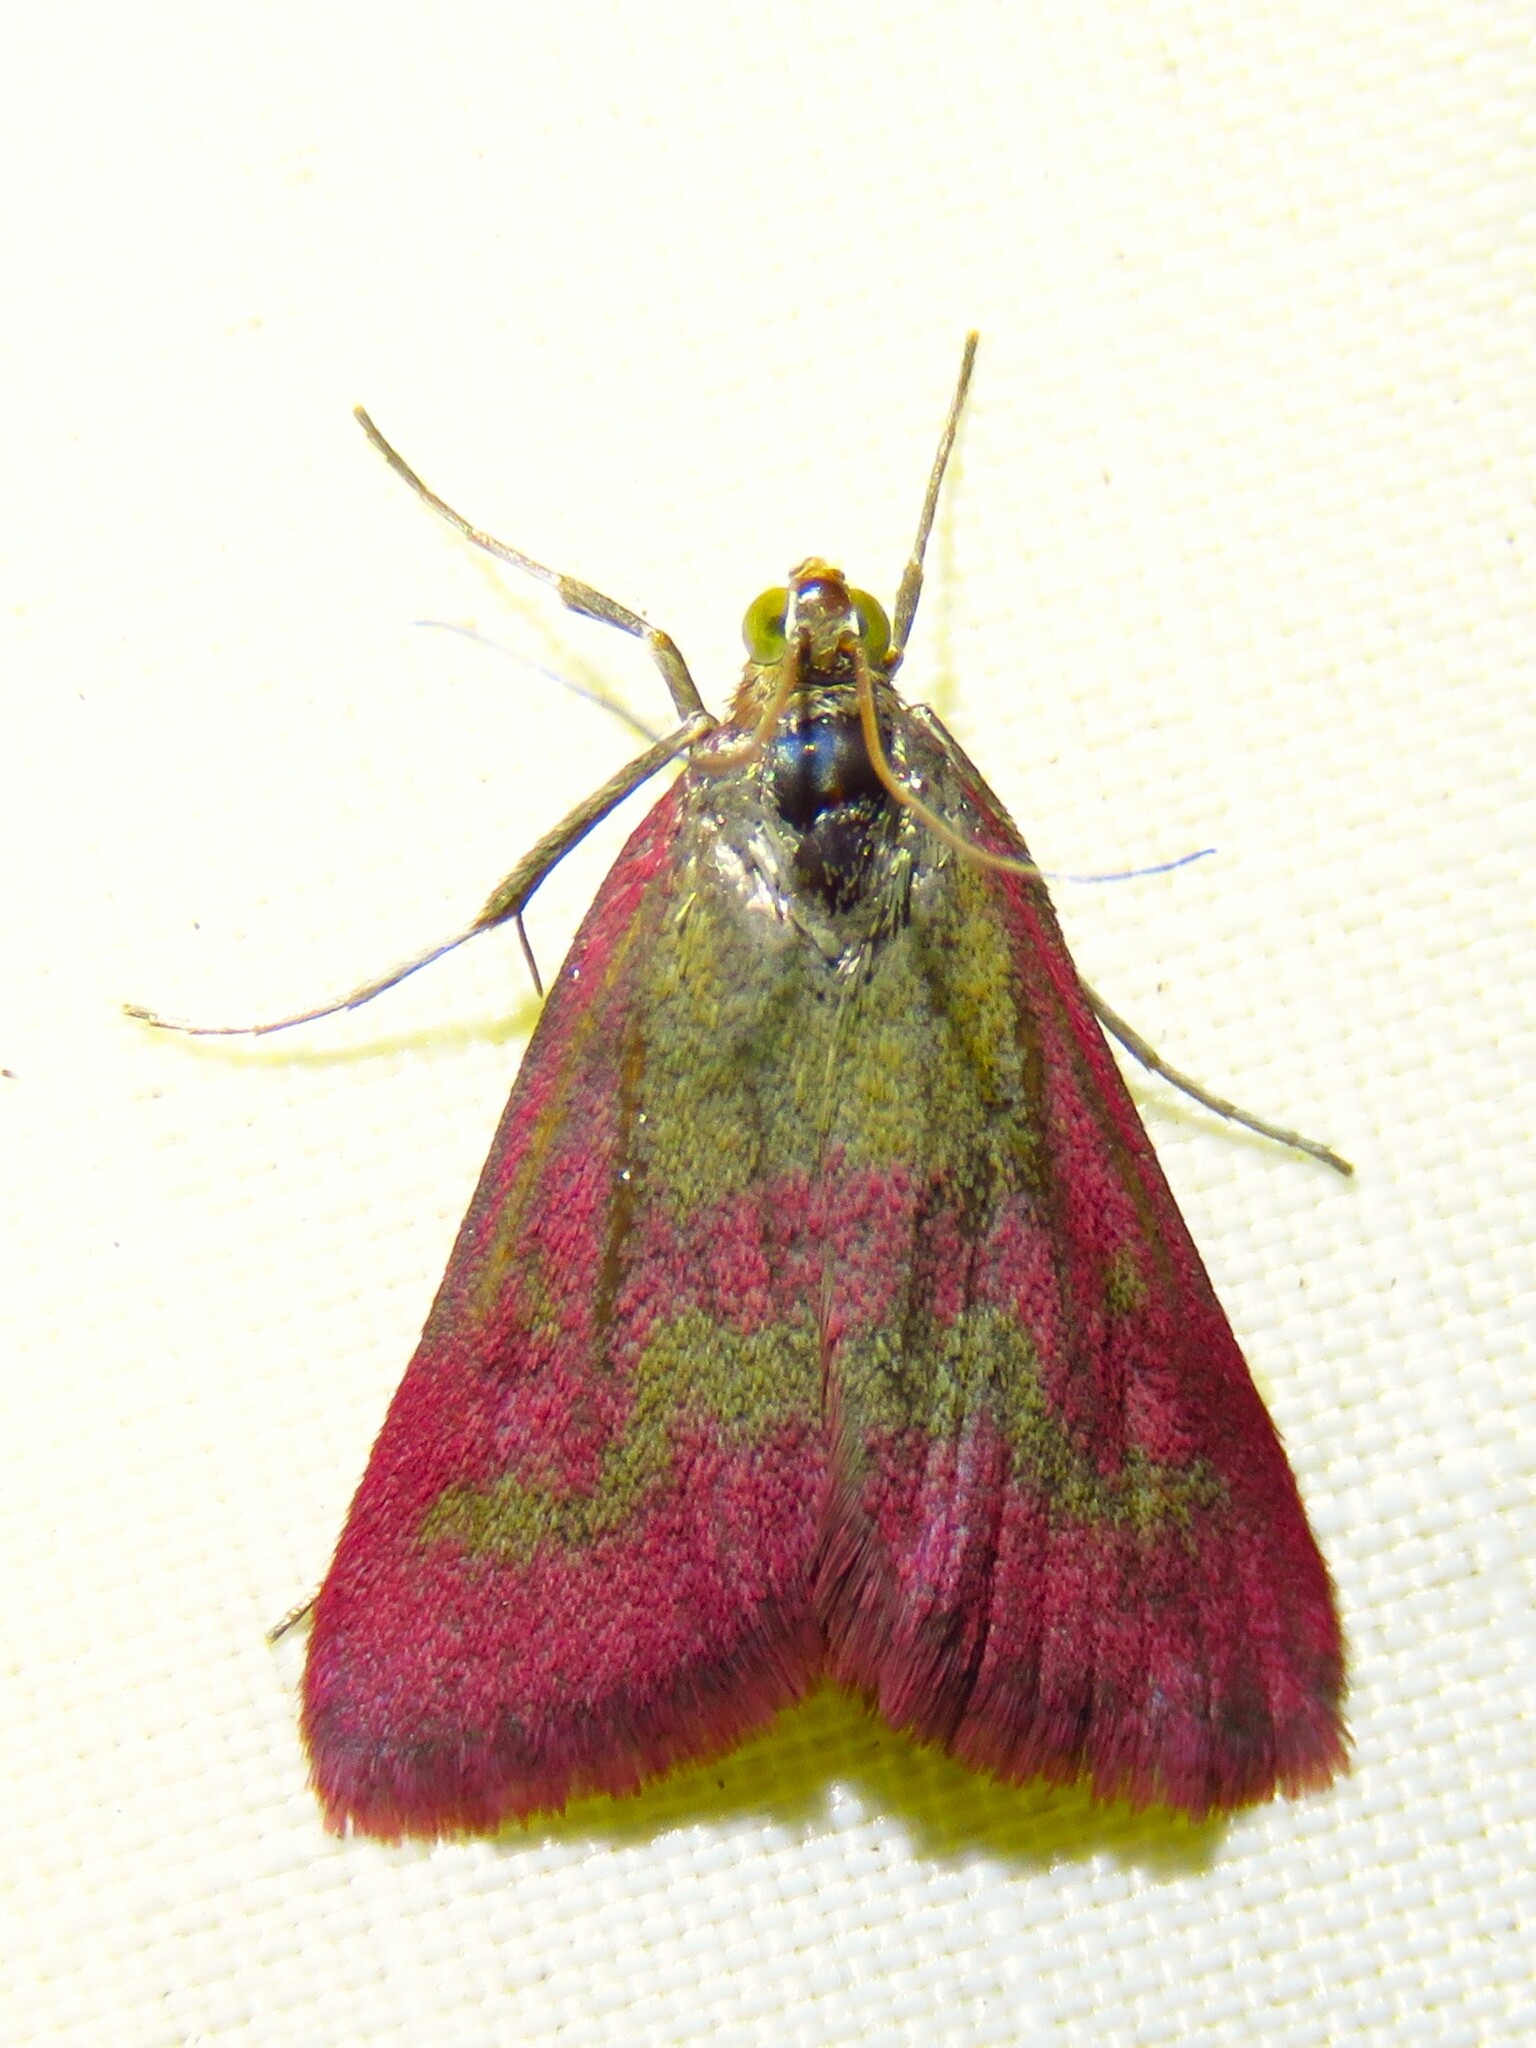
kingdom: Animalia
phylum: Arthropoda
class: Insecta
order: Lepidoptera
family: Crambidae
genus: Pyrausta
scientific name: Pyrausta laticlavia
